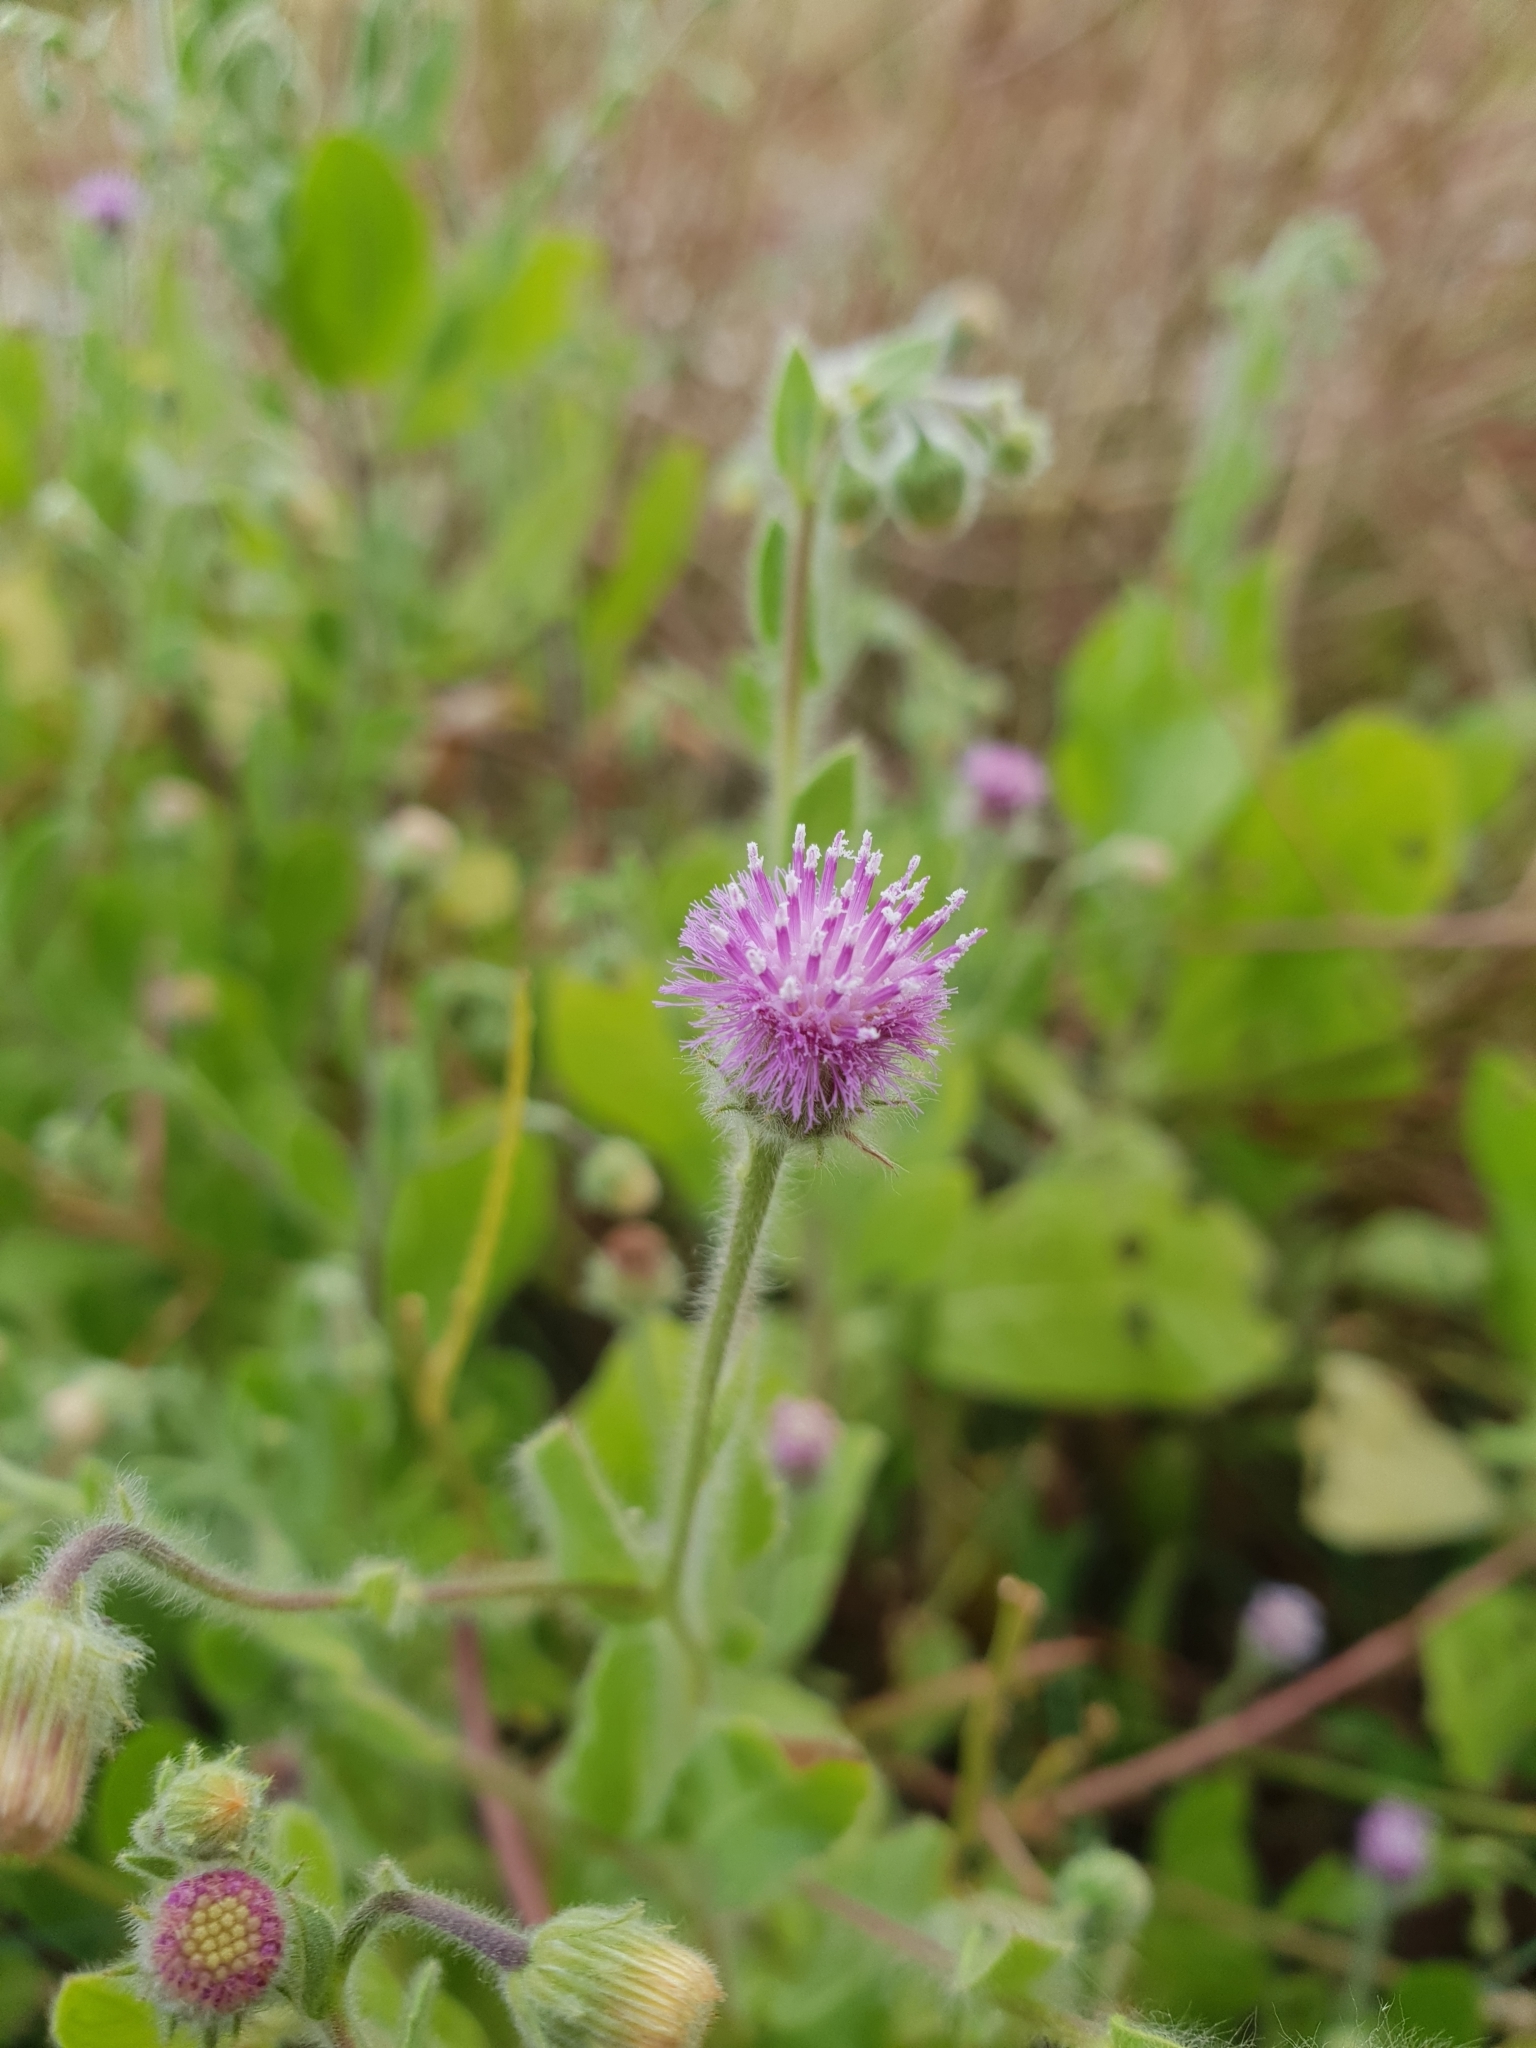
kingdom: Plantae
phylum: Tracheophyta
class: Magnoliopsida
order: Asterales
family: Asteraceae
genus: Blumea
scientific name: Blumea obliqua
